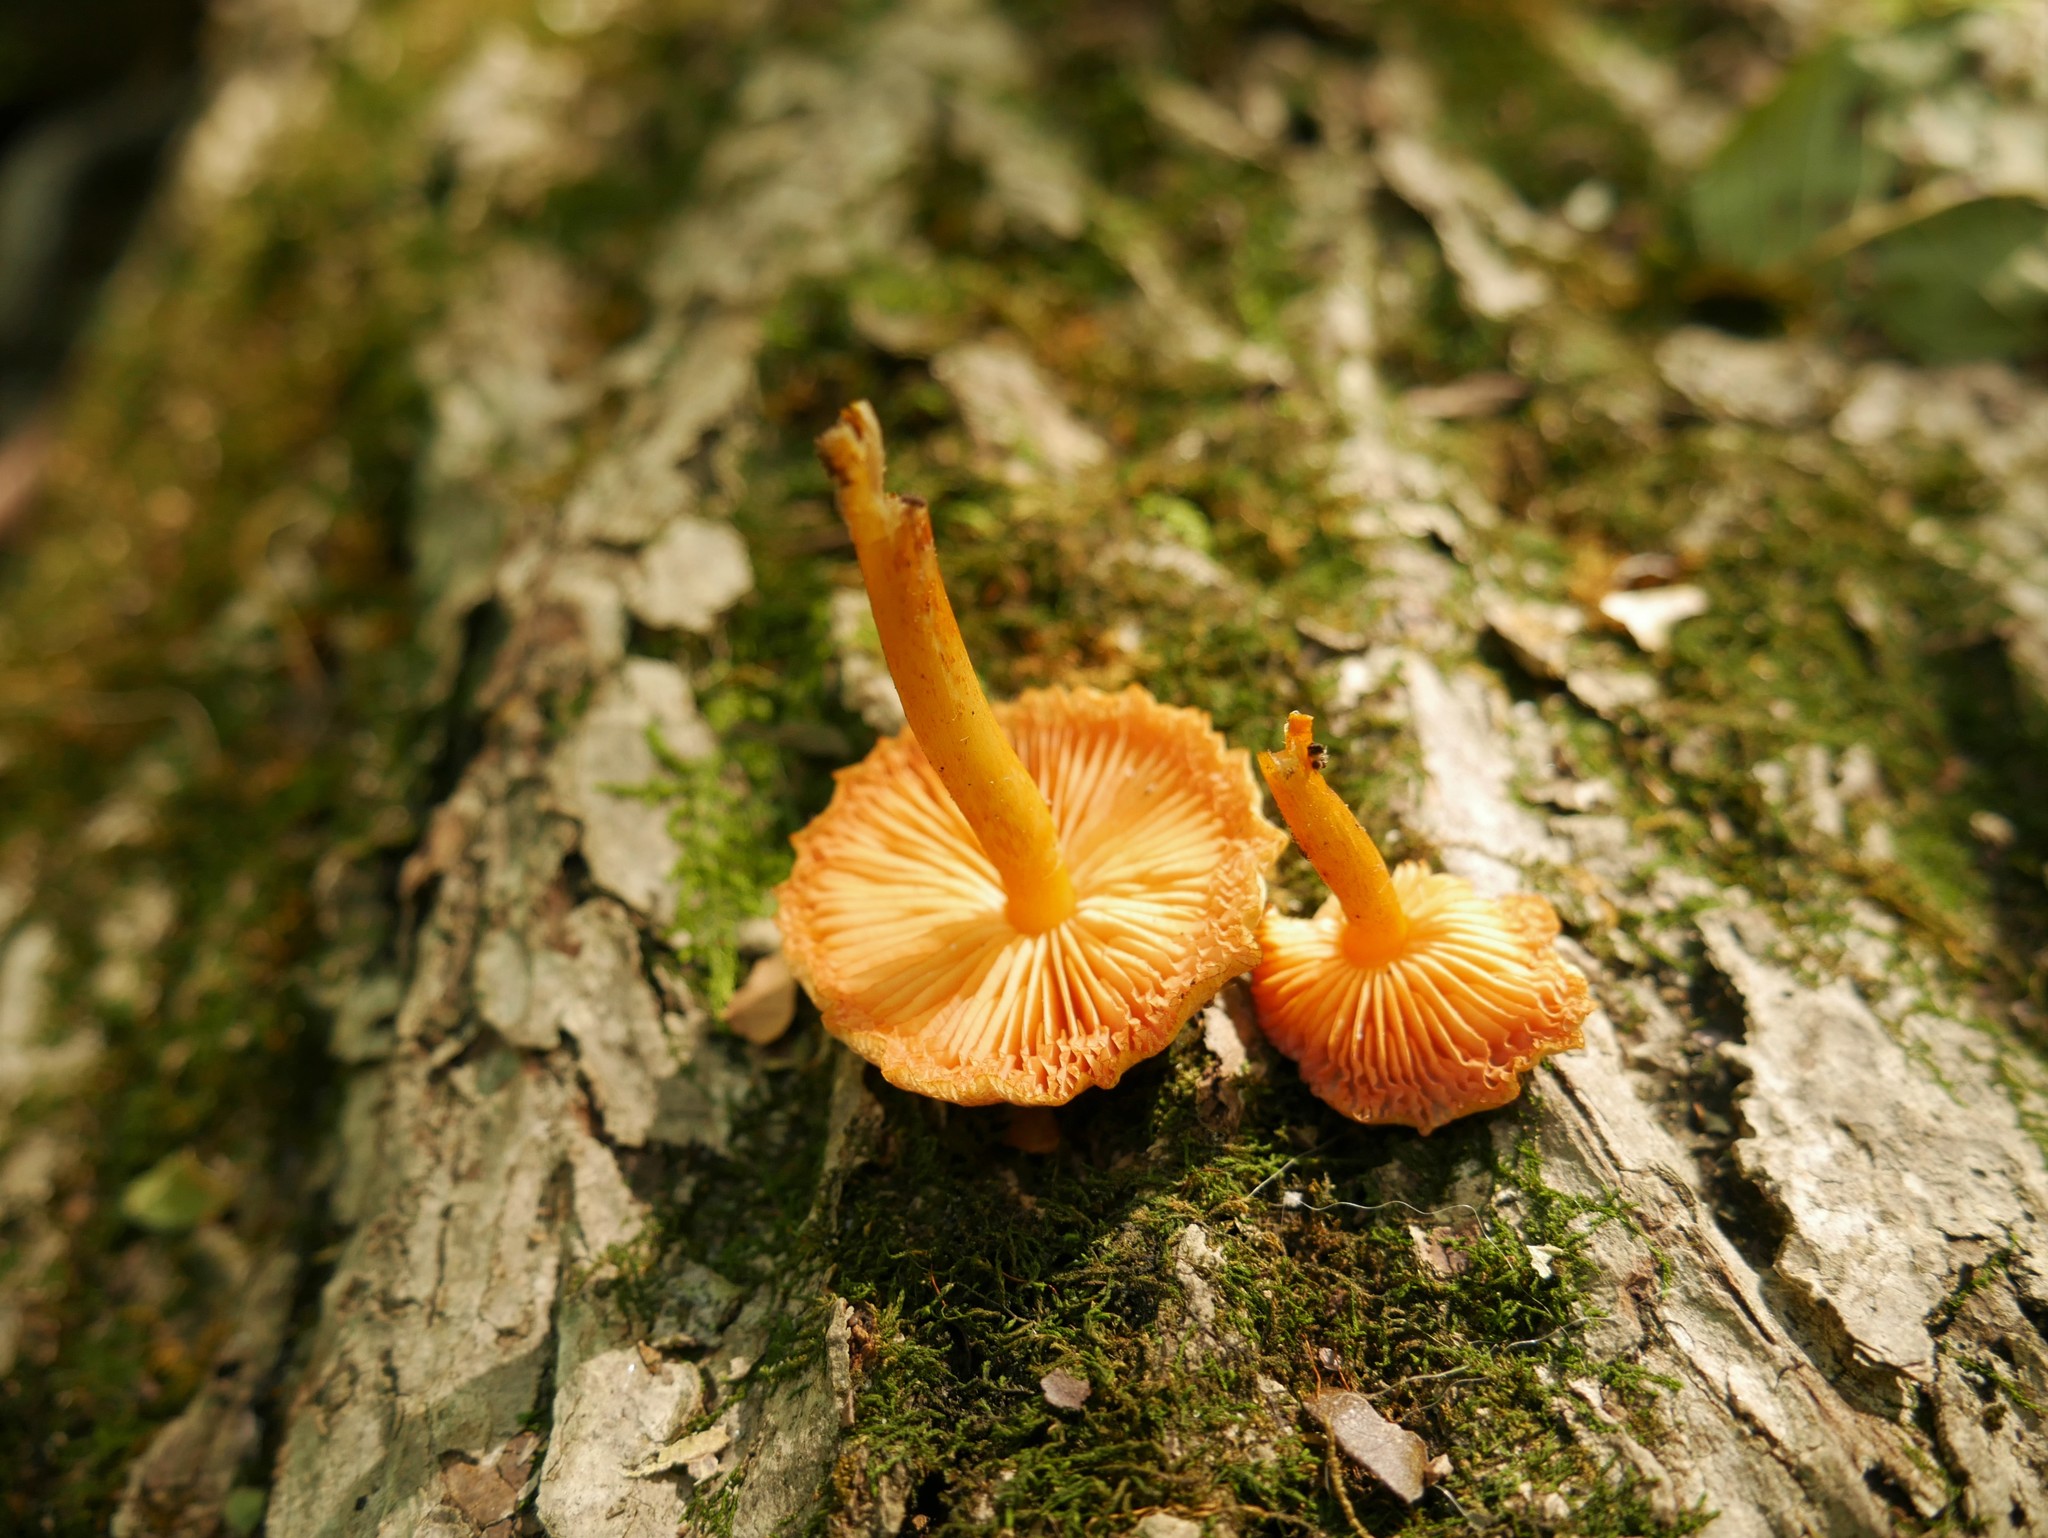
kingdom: Fungi
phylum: Basidiomycota
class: Agaricomycetes
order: Agaricales
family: Mycenaceae
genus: Mycena
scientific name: Mycena leaiana
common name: Orange mycena
